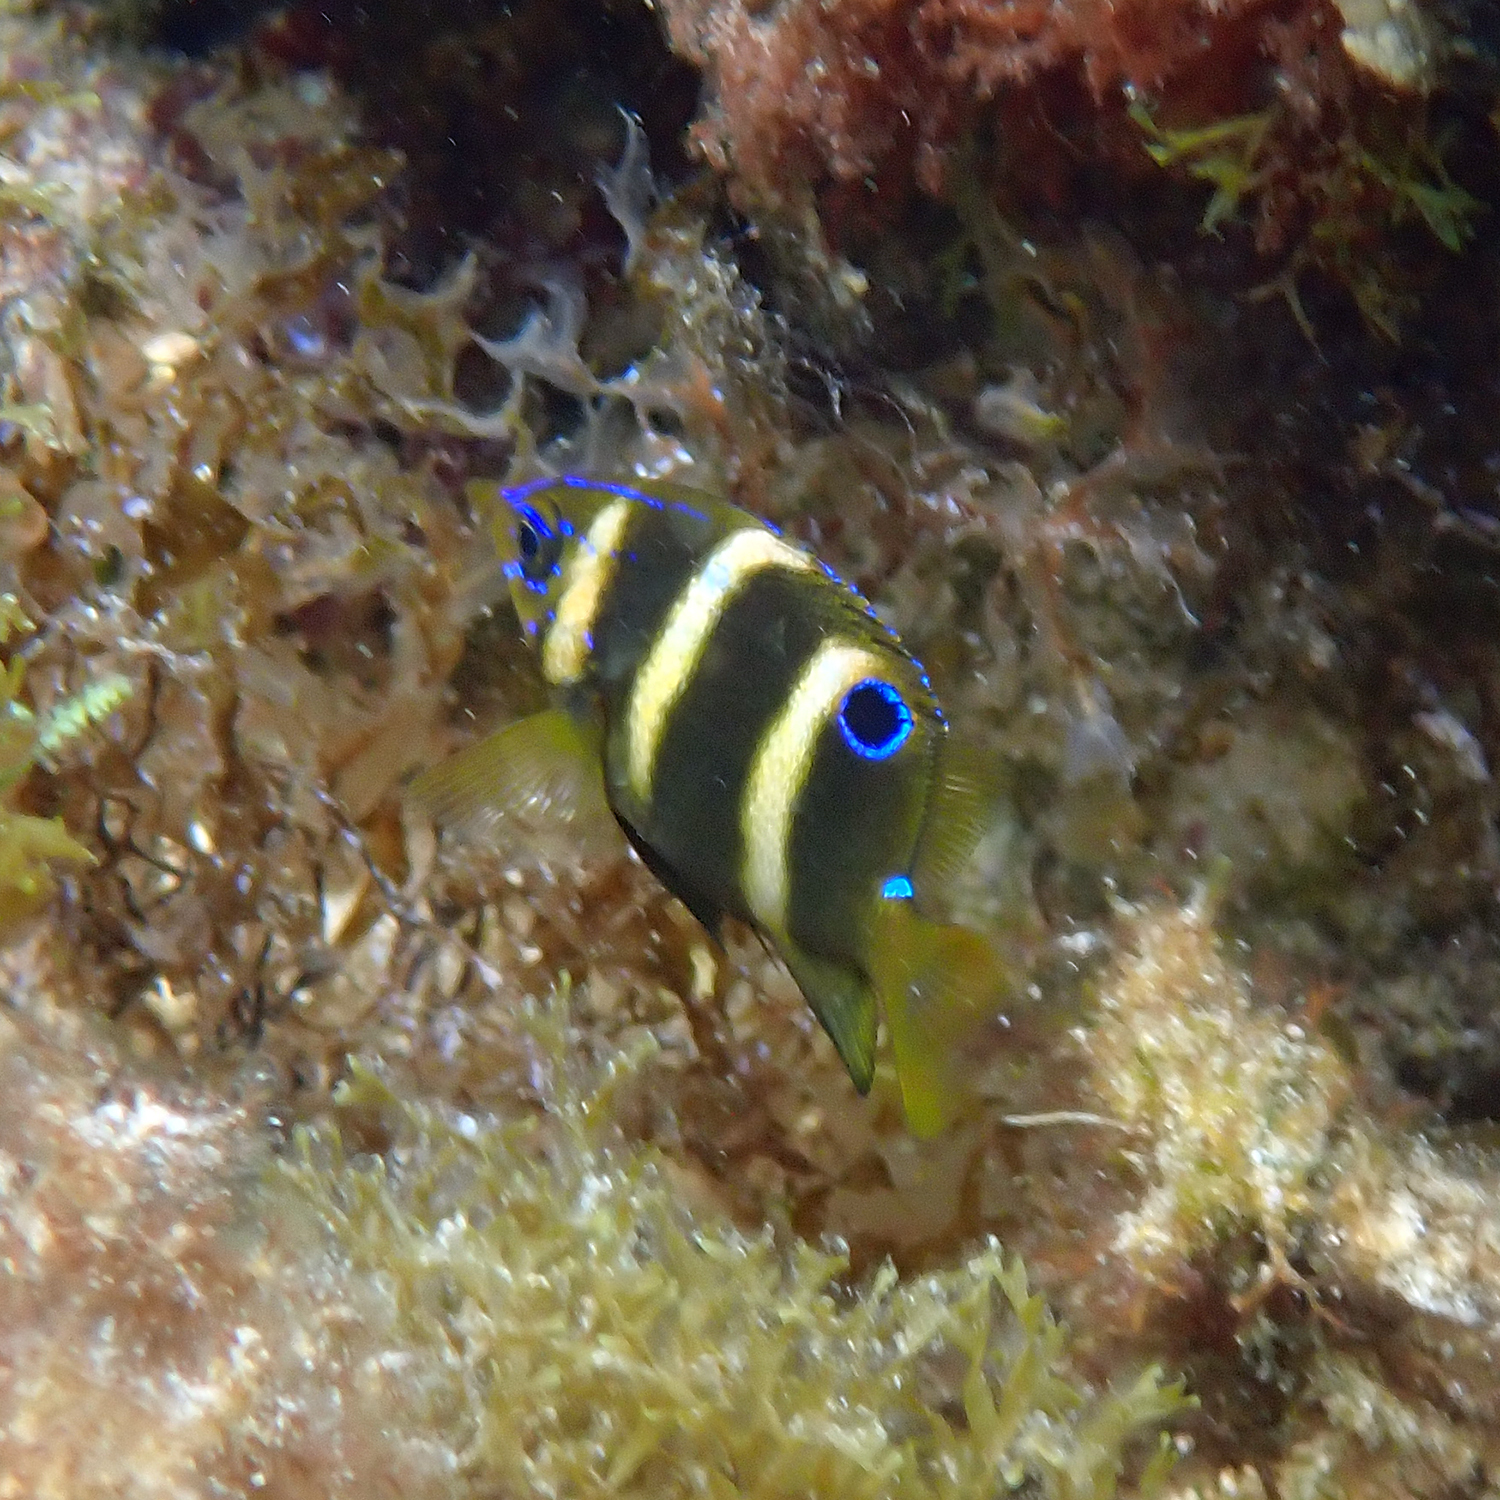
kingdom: Animalia
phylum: Chordata
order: Perciformes
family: Pomacentridae
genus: Parma
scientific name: Parma polylepis
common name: Banded parma
